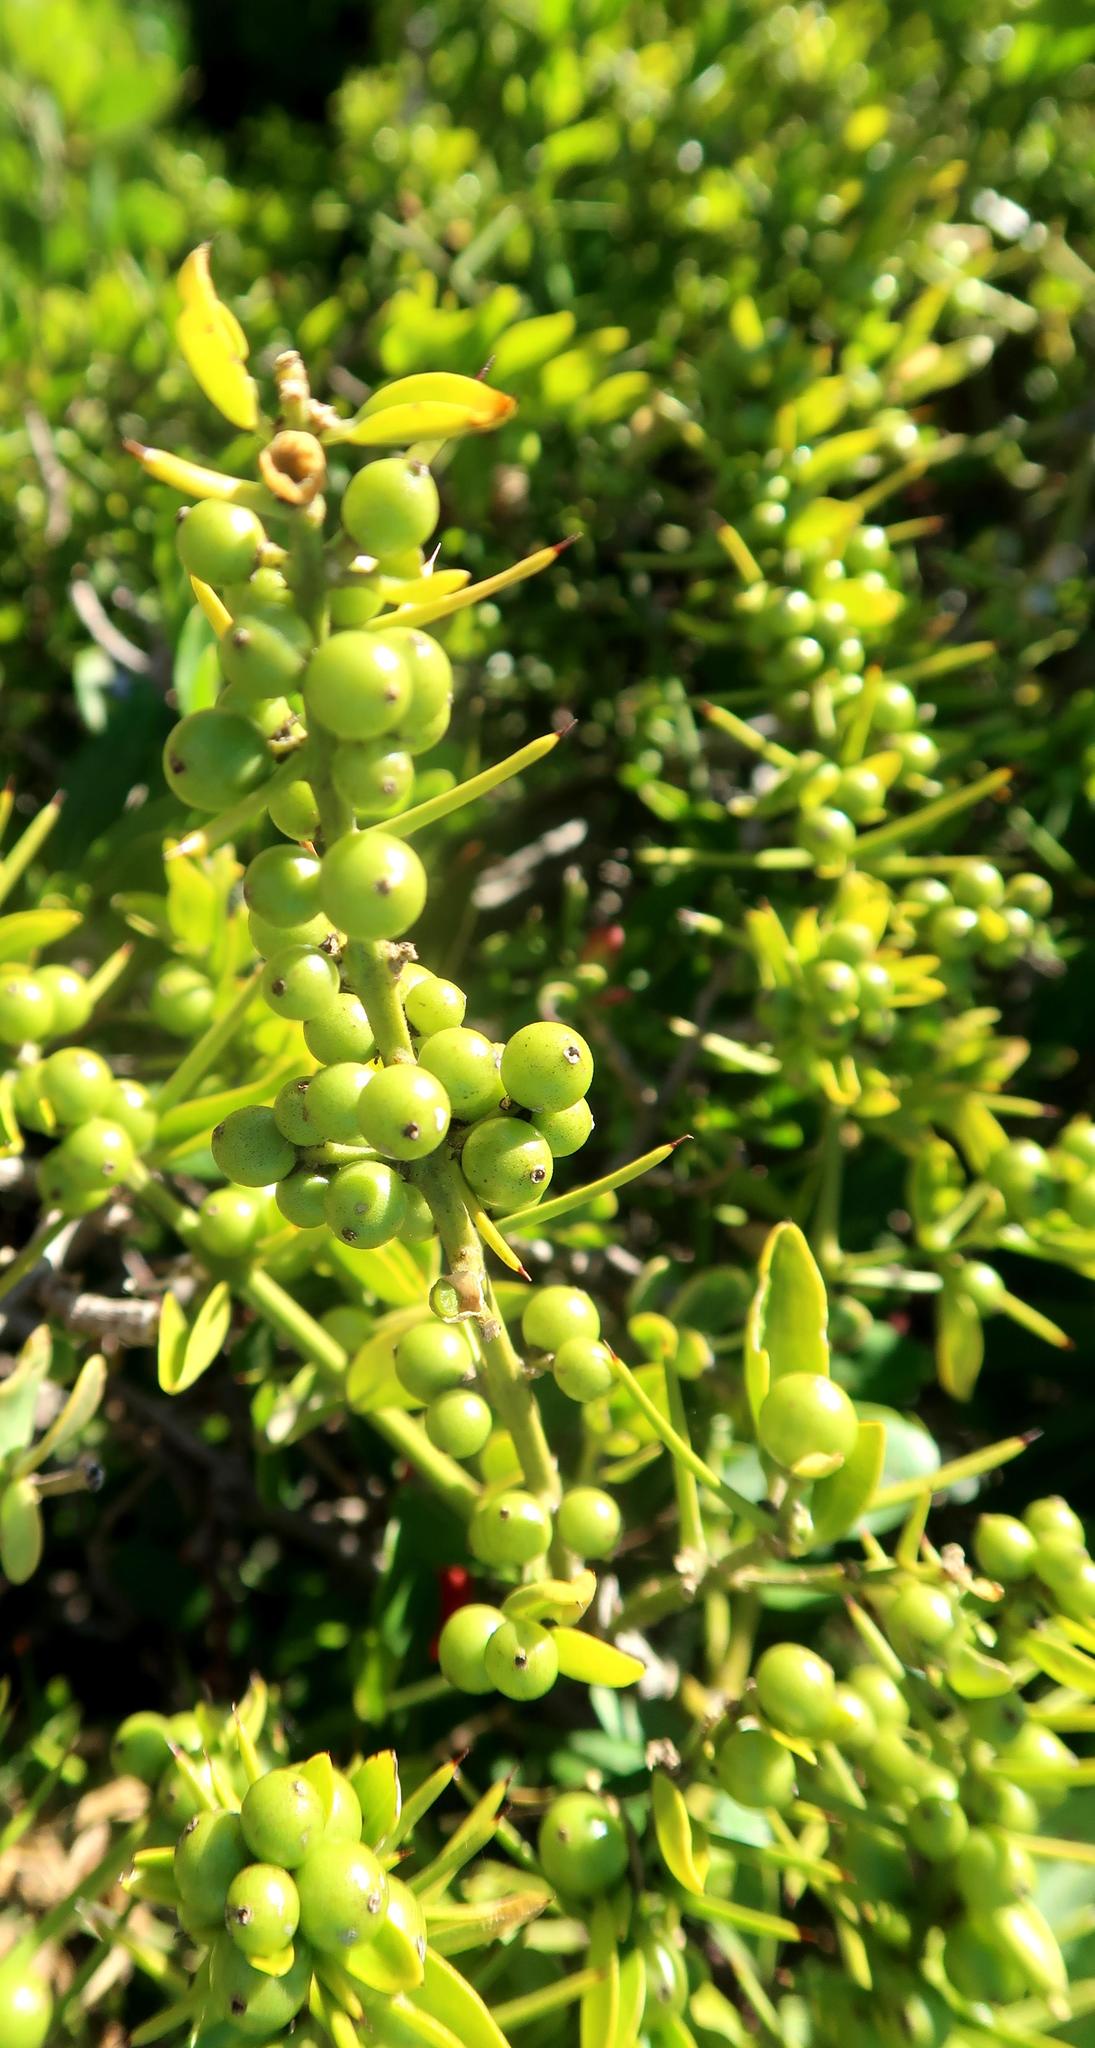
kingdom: Plantae
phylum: Tracheophyta
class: Magnoliopsida
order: Brassicales
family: Salvadoraceae
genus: Azima
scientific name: Azima tetracantha
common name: Needle bush
